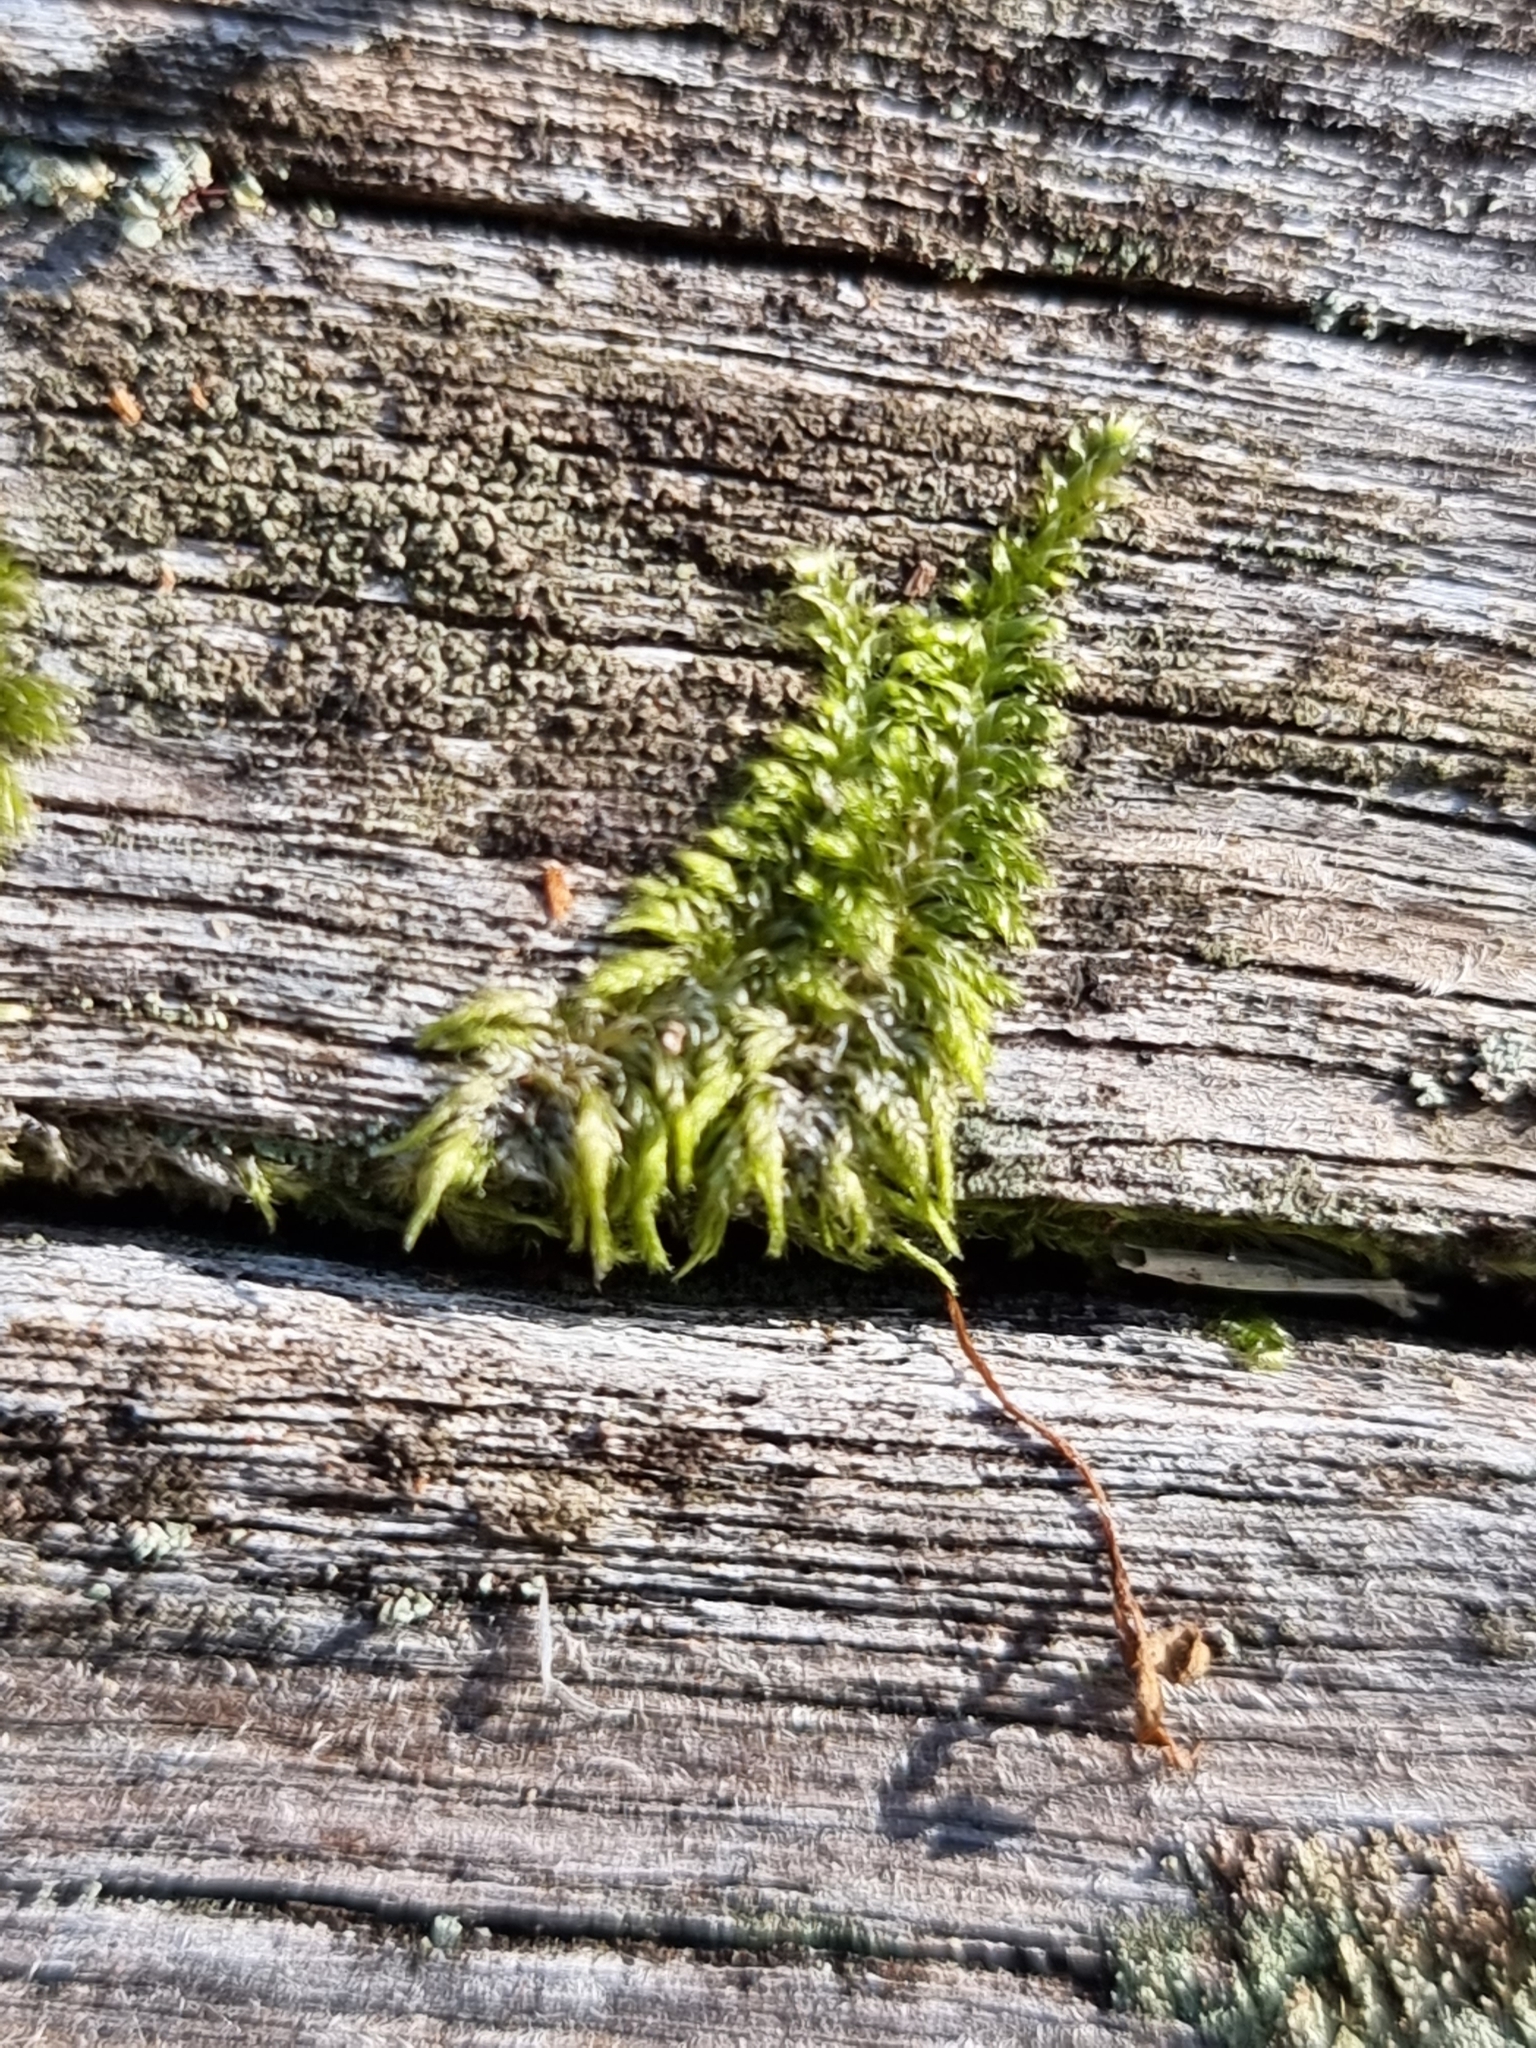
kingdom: Plantae
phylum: Bryophyta
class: Bryopsida
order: Hypnales
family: Hypnaceae
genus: Hypnum
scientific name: Hypnum cupressiforme
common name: Cypress-leaved plait-moss
